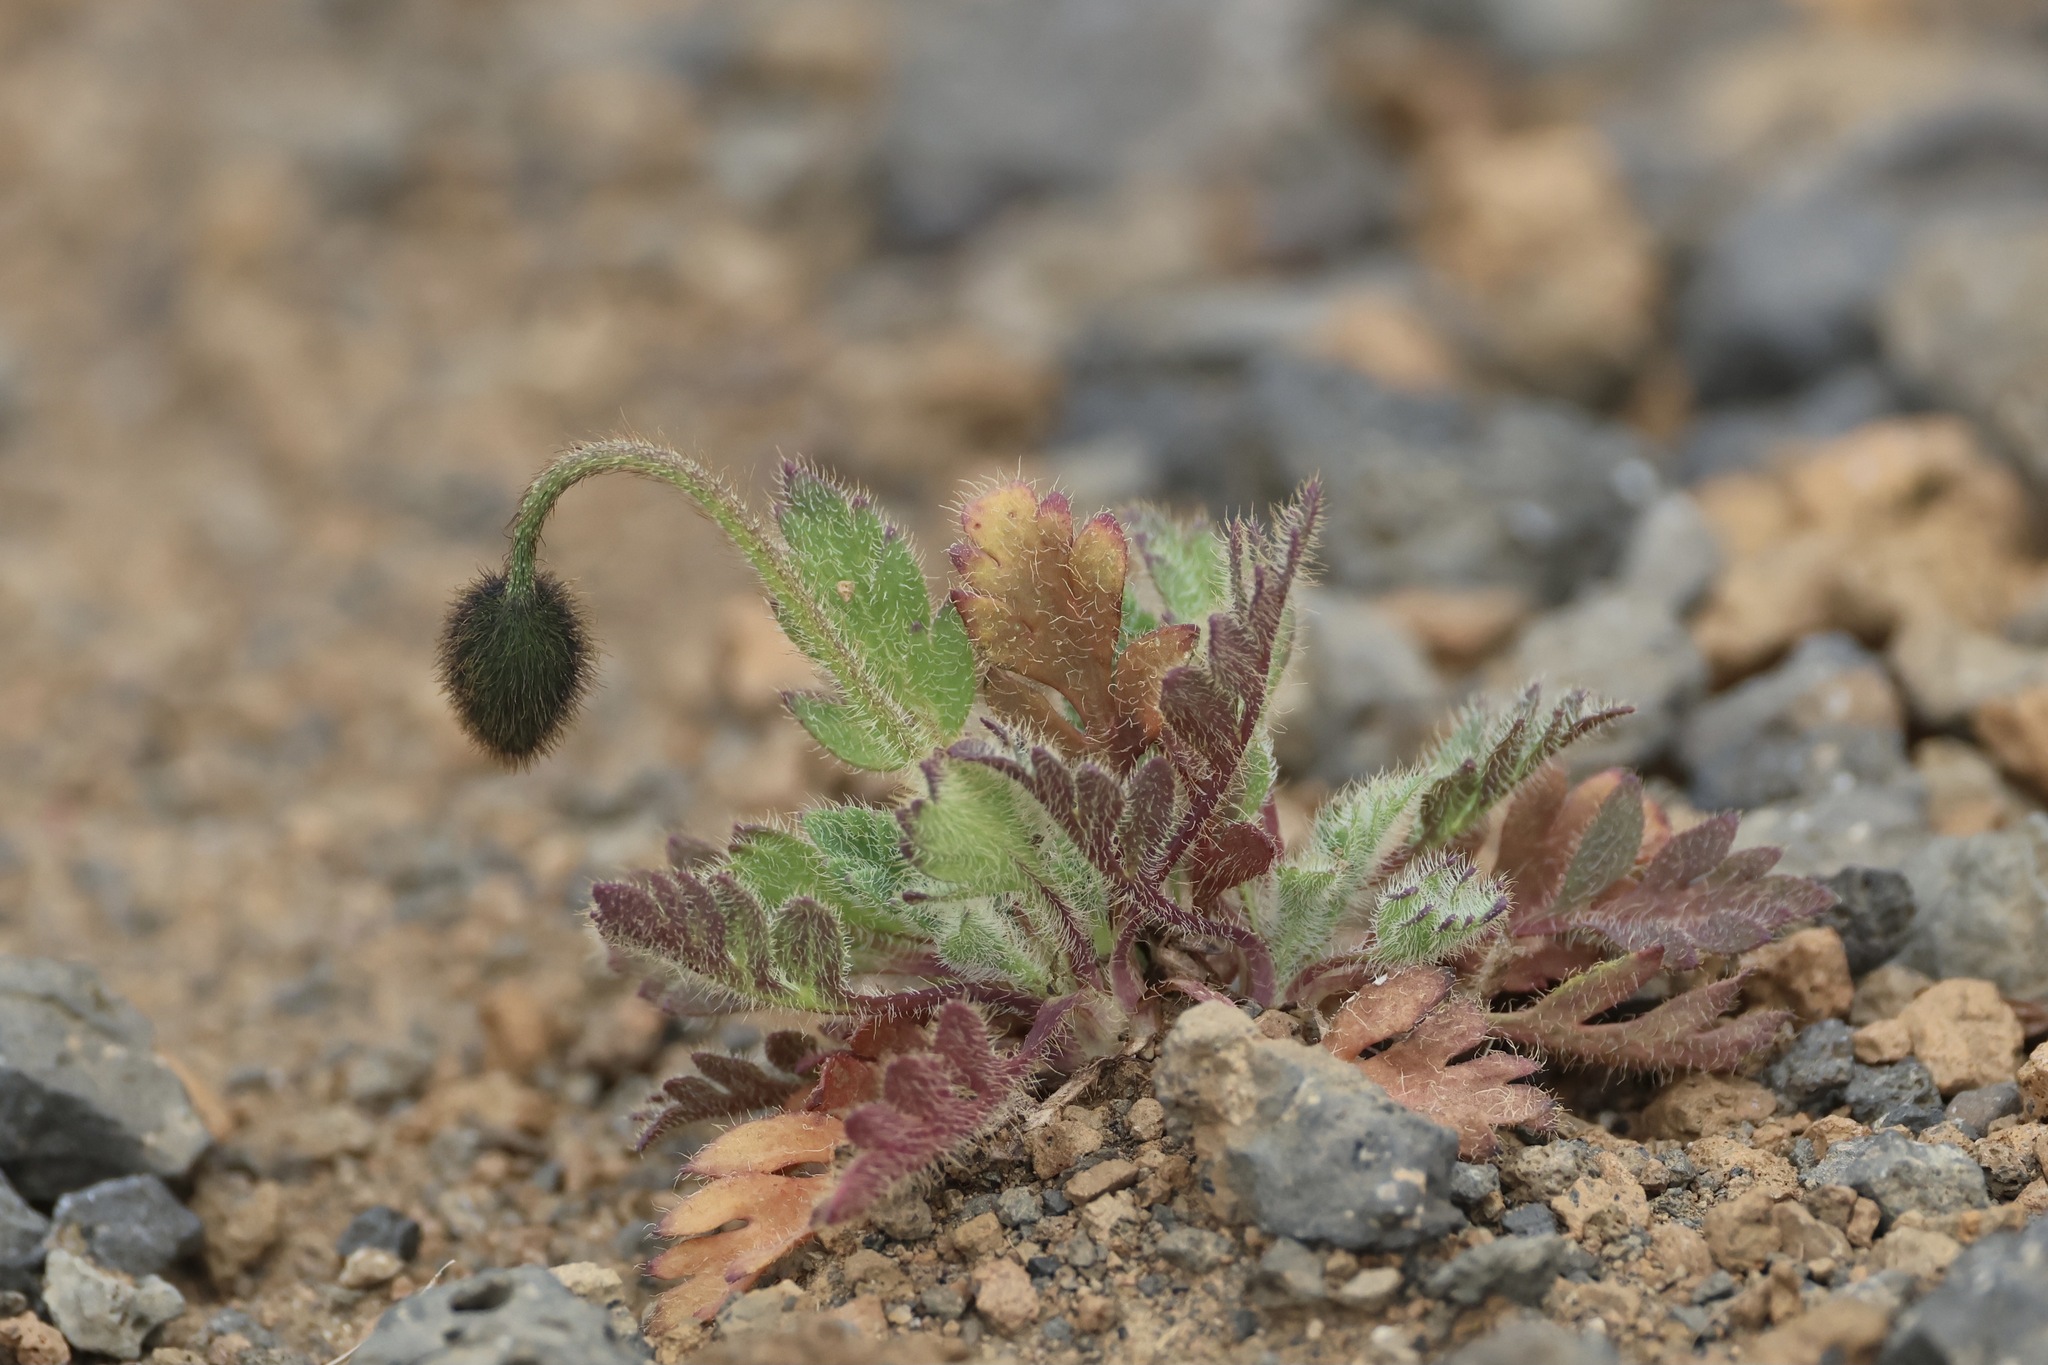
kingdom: Plantae
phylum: Tracheophyta
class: Magnoliopsida
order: Ranunculales
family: Papaveraceae
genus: Papaver
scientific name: Papaver radicatum
